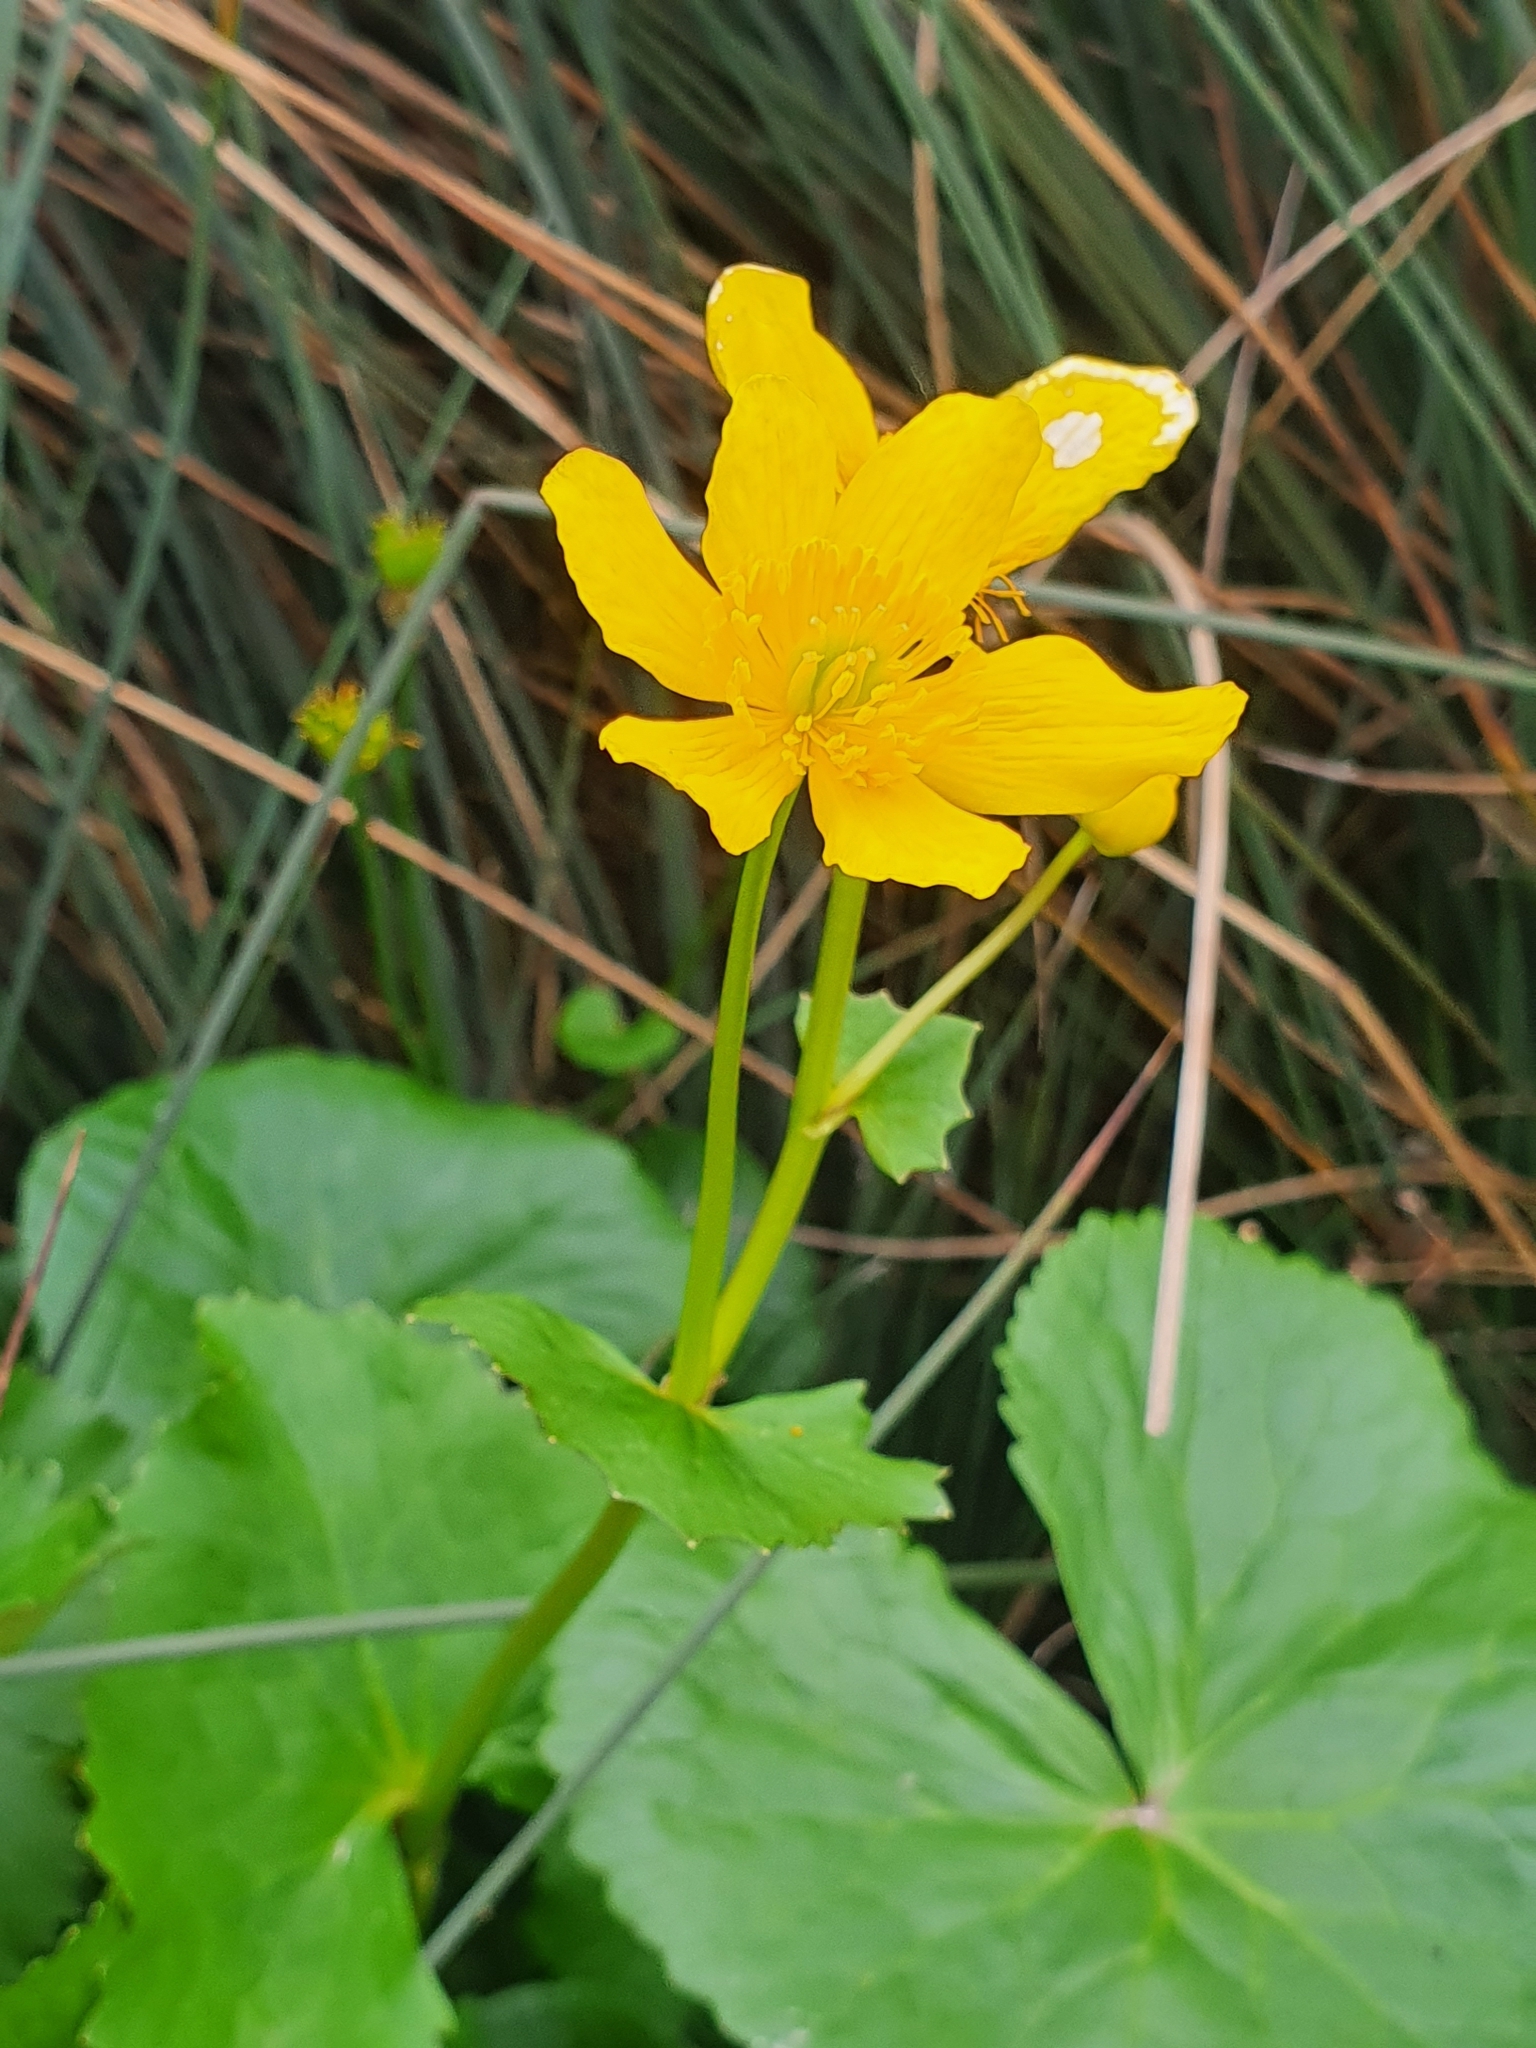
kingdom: Plantae
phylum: Tracheophyta
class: Magnoliopsida
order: Ranunculales
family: Ranunculaceae
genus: Caltha
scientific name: Caltha palustris
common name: Marsh marigold
